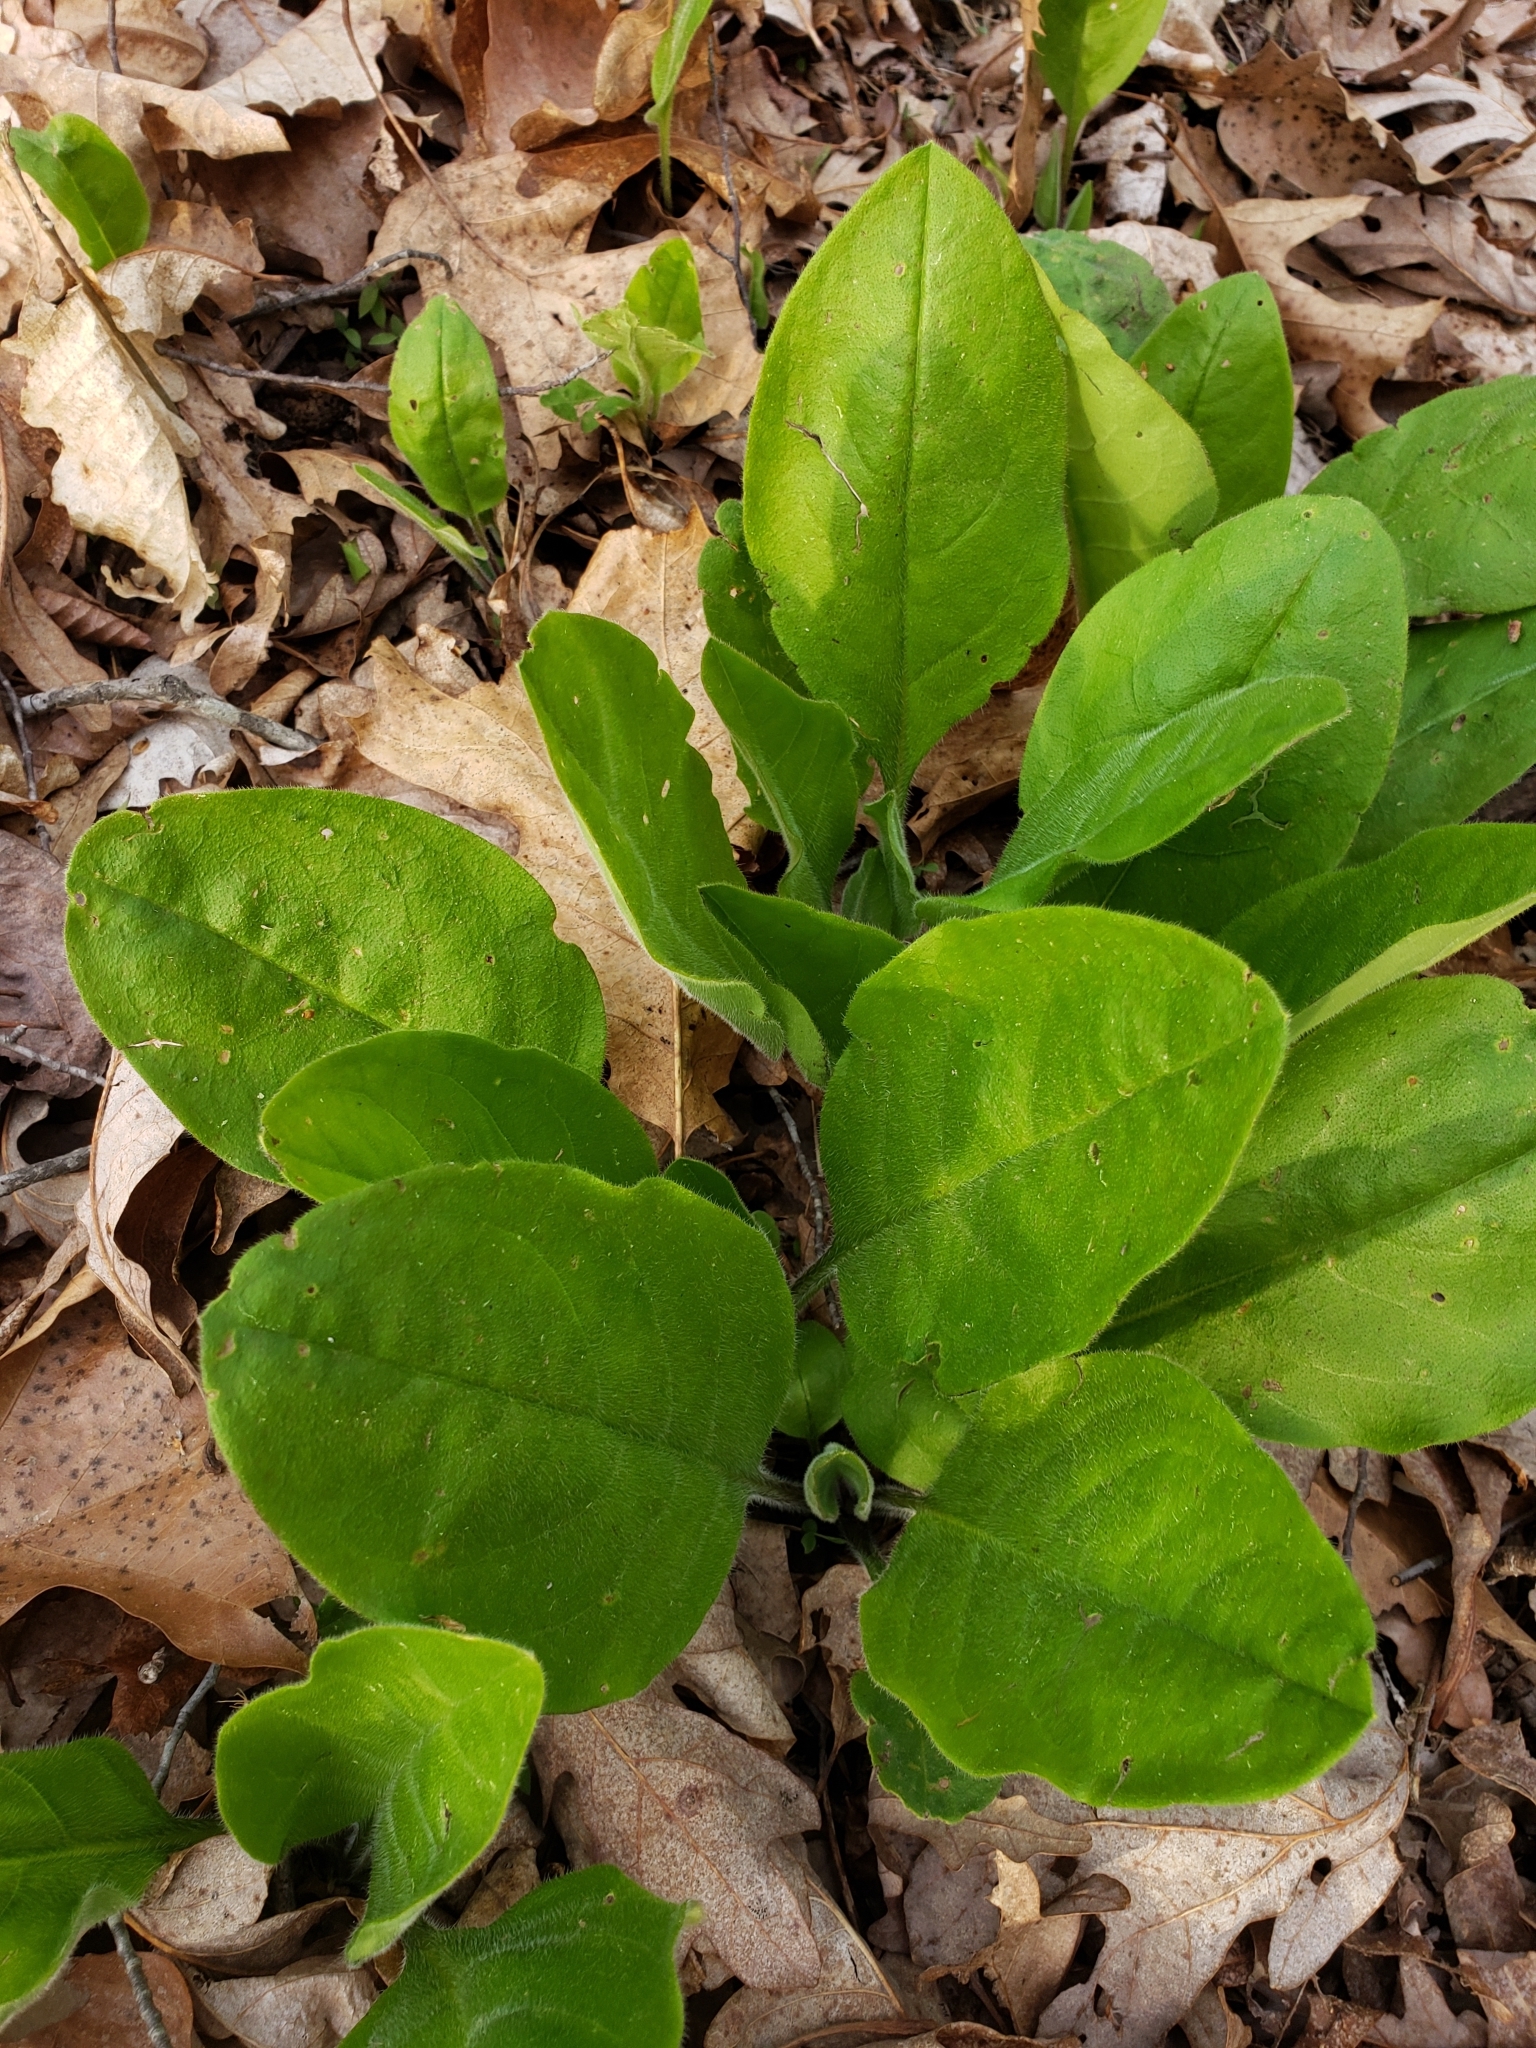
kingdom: Plantae
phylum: Tracheophyta
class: Magnoliopsida
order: Boraginales
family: Boraginaceae
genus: Andersonglossum
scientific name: Andersonglossum virginianum
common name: Wild comfrey
